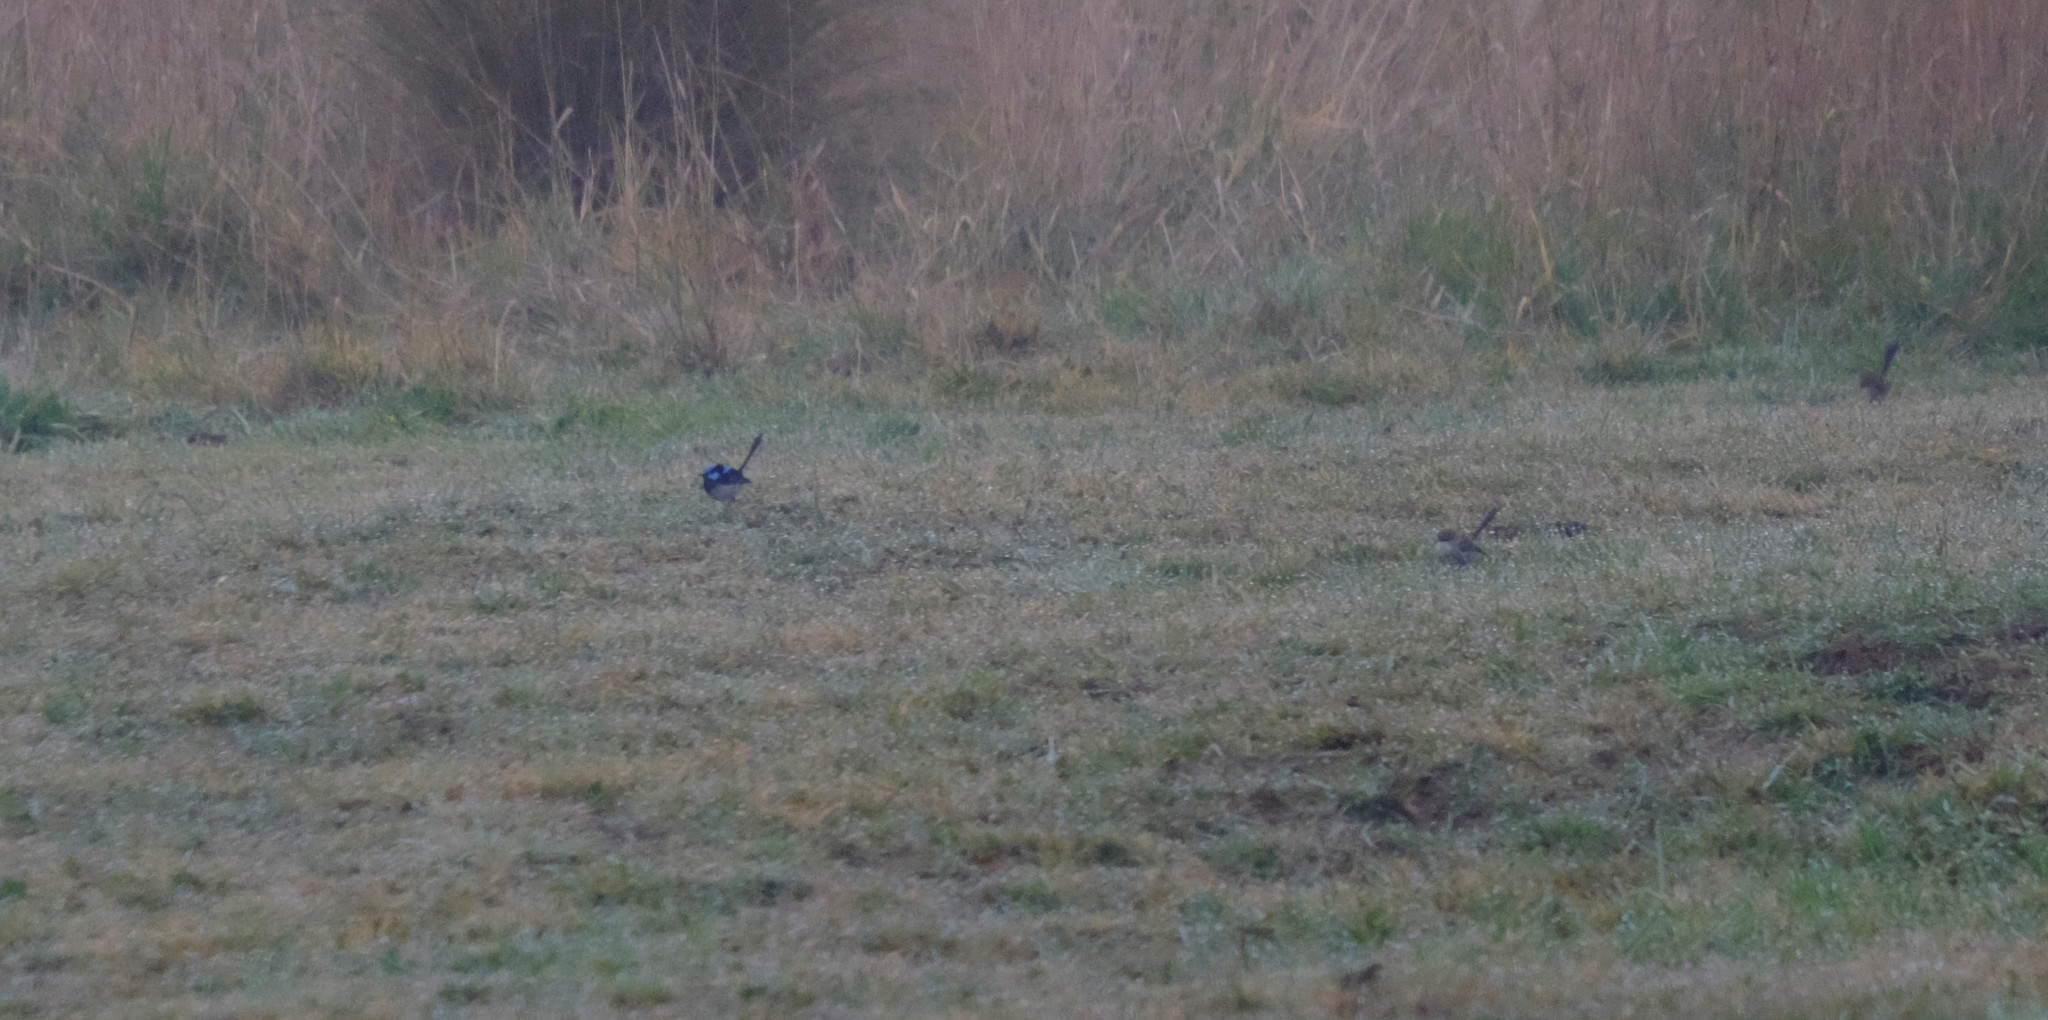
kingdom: Animalia
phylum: Chordata
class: Aves
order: Passeriformes
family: Maluridae
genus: Malurus
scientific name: Malurus cyaneus
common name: Superb fairywren
